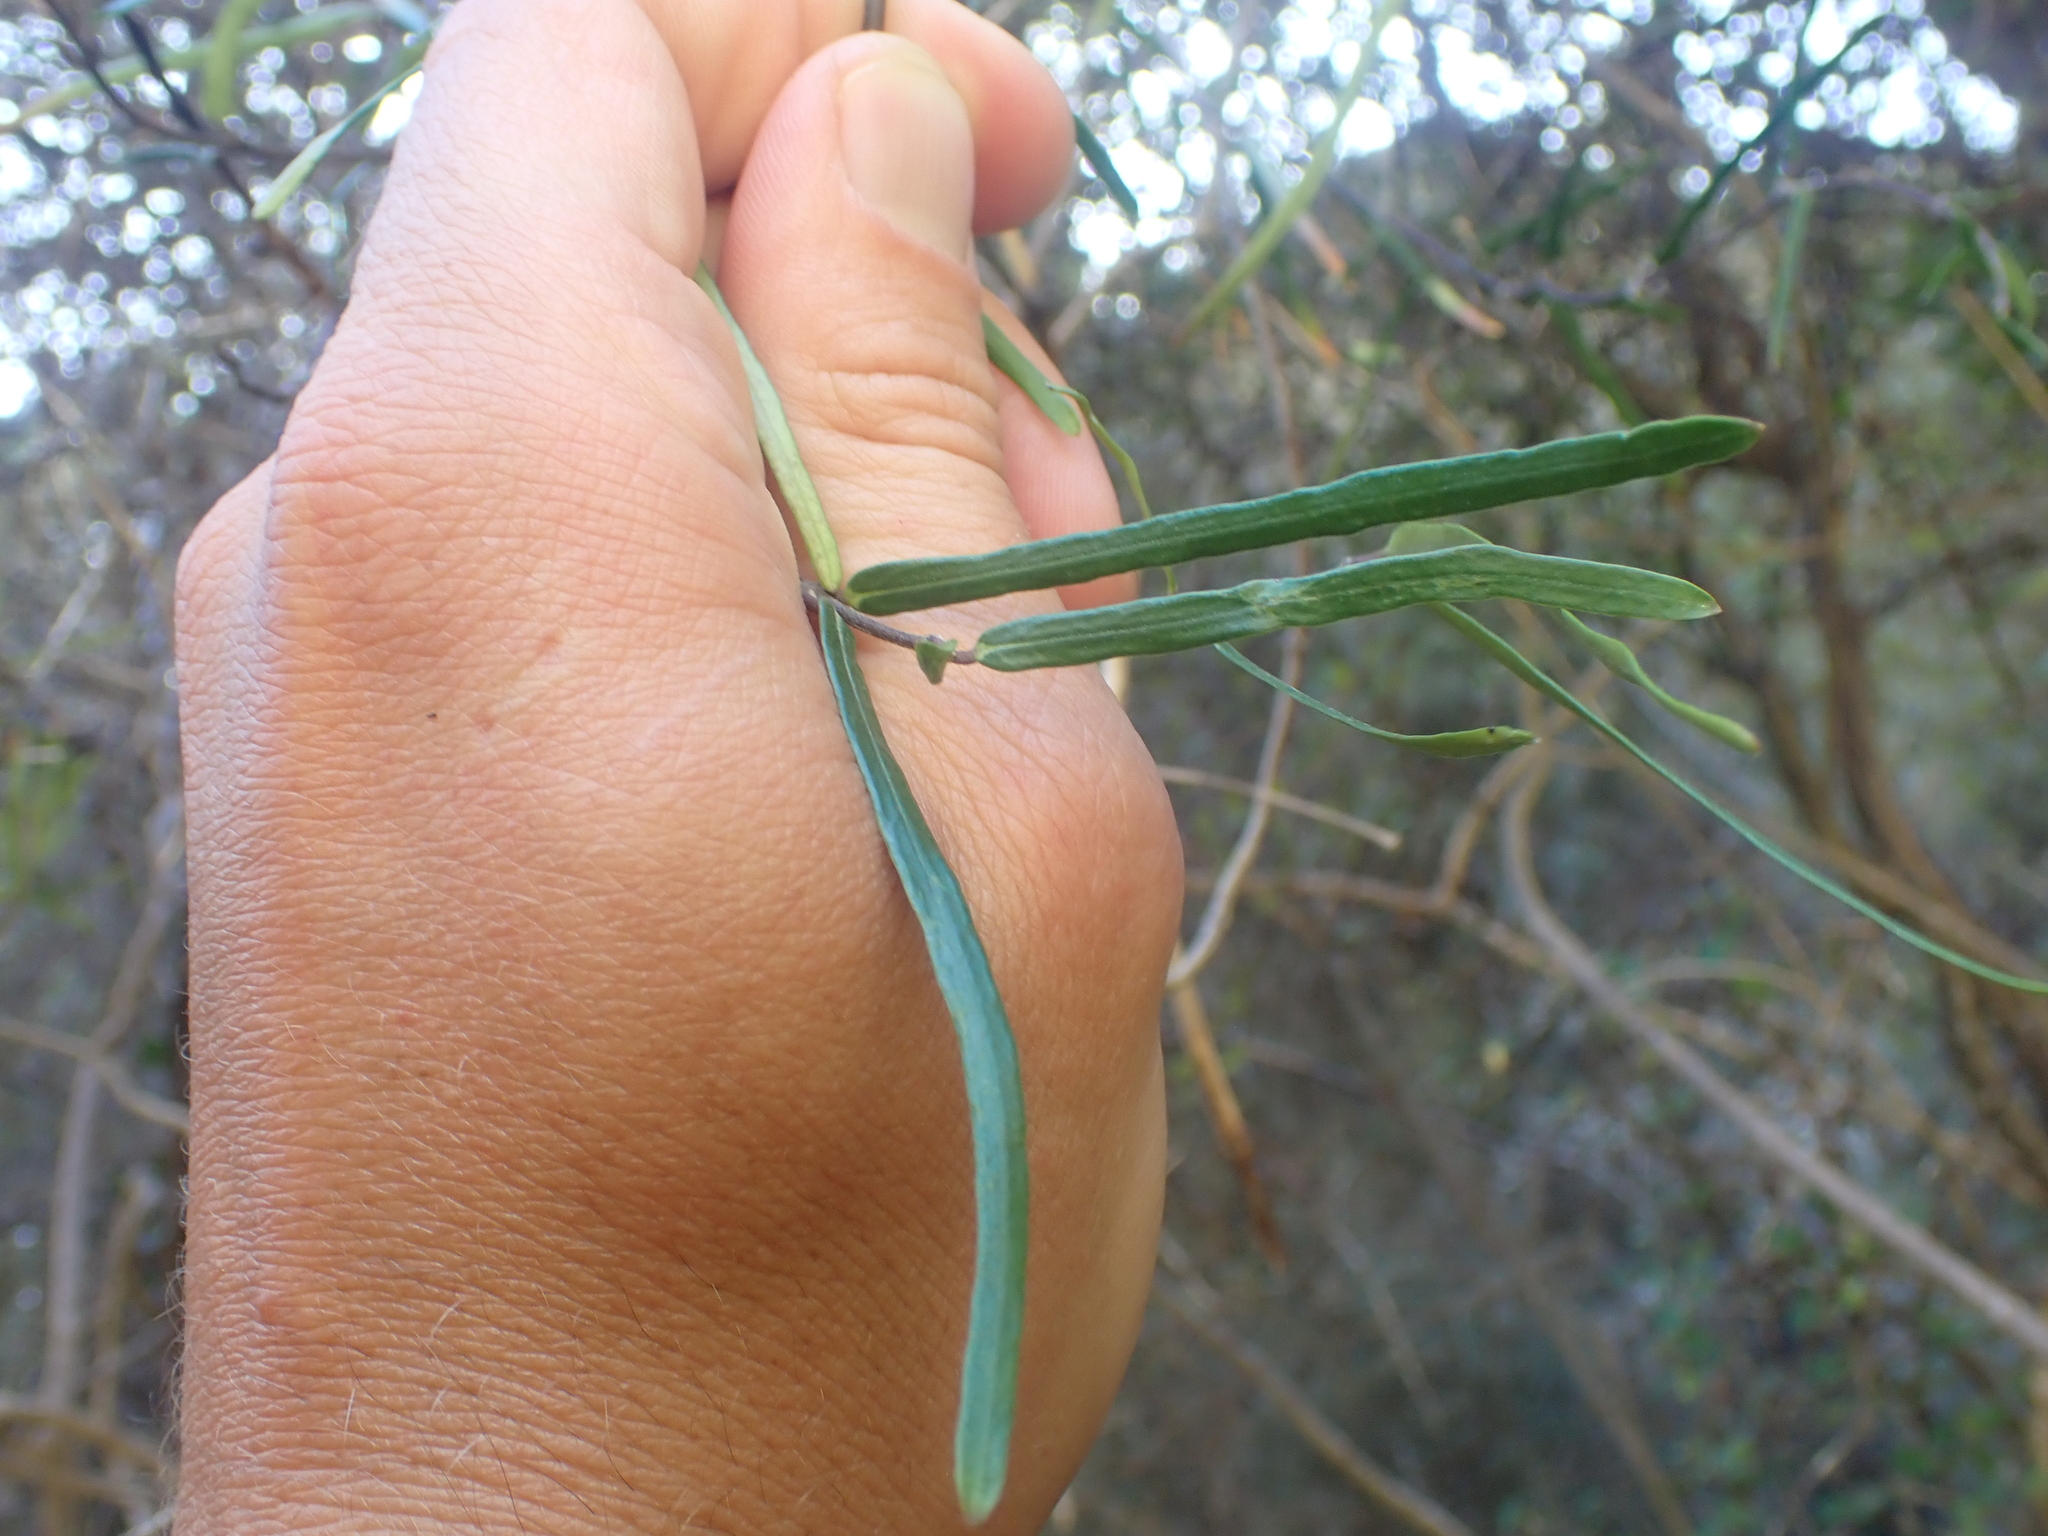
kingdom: Plantae
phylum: Tracheophyta
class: Magnoliopsida
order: Gentianales
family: Apocynaceae
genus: Parsonsia
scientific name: Parsonsia capsularis
